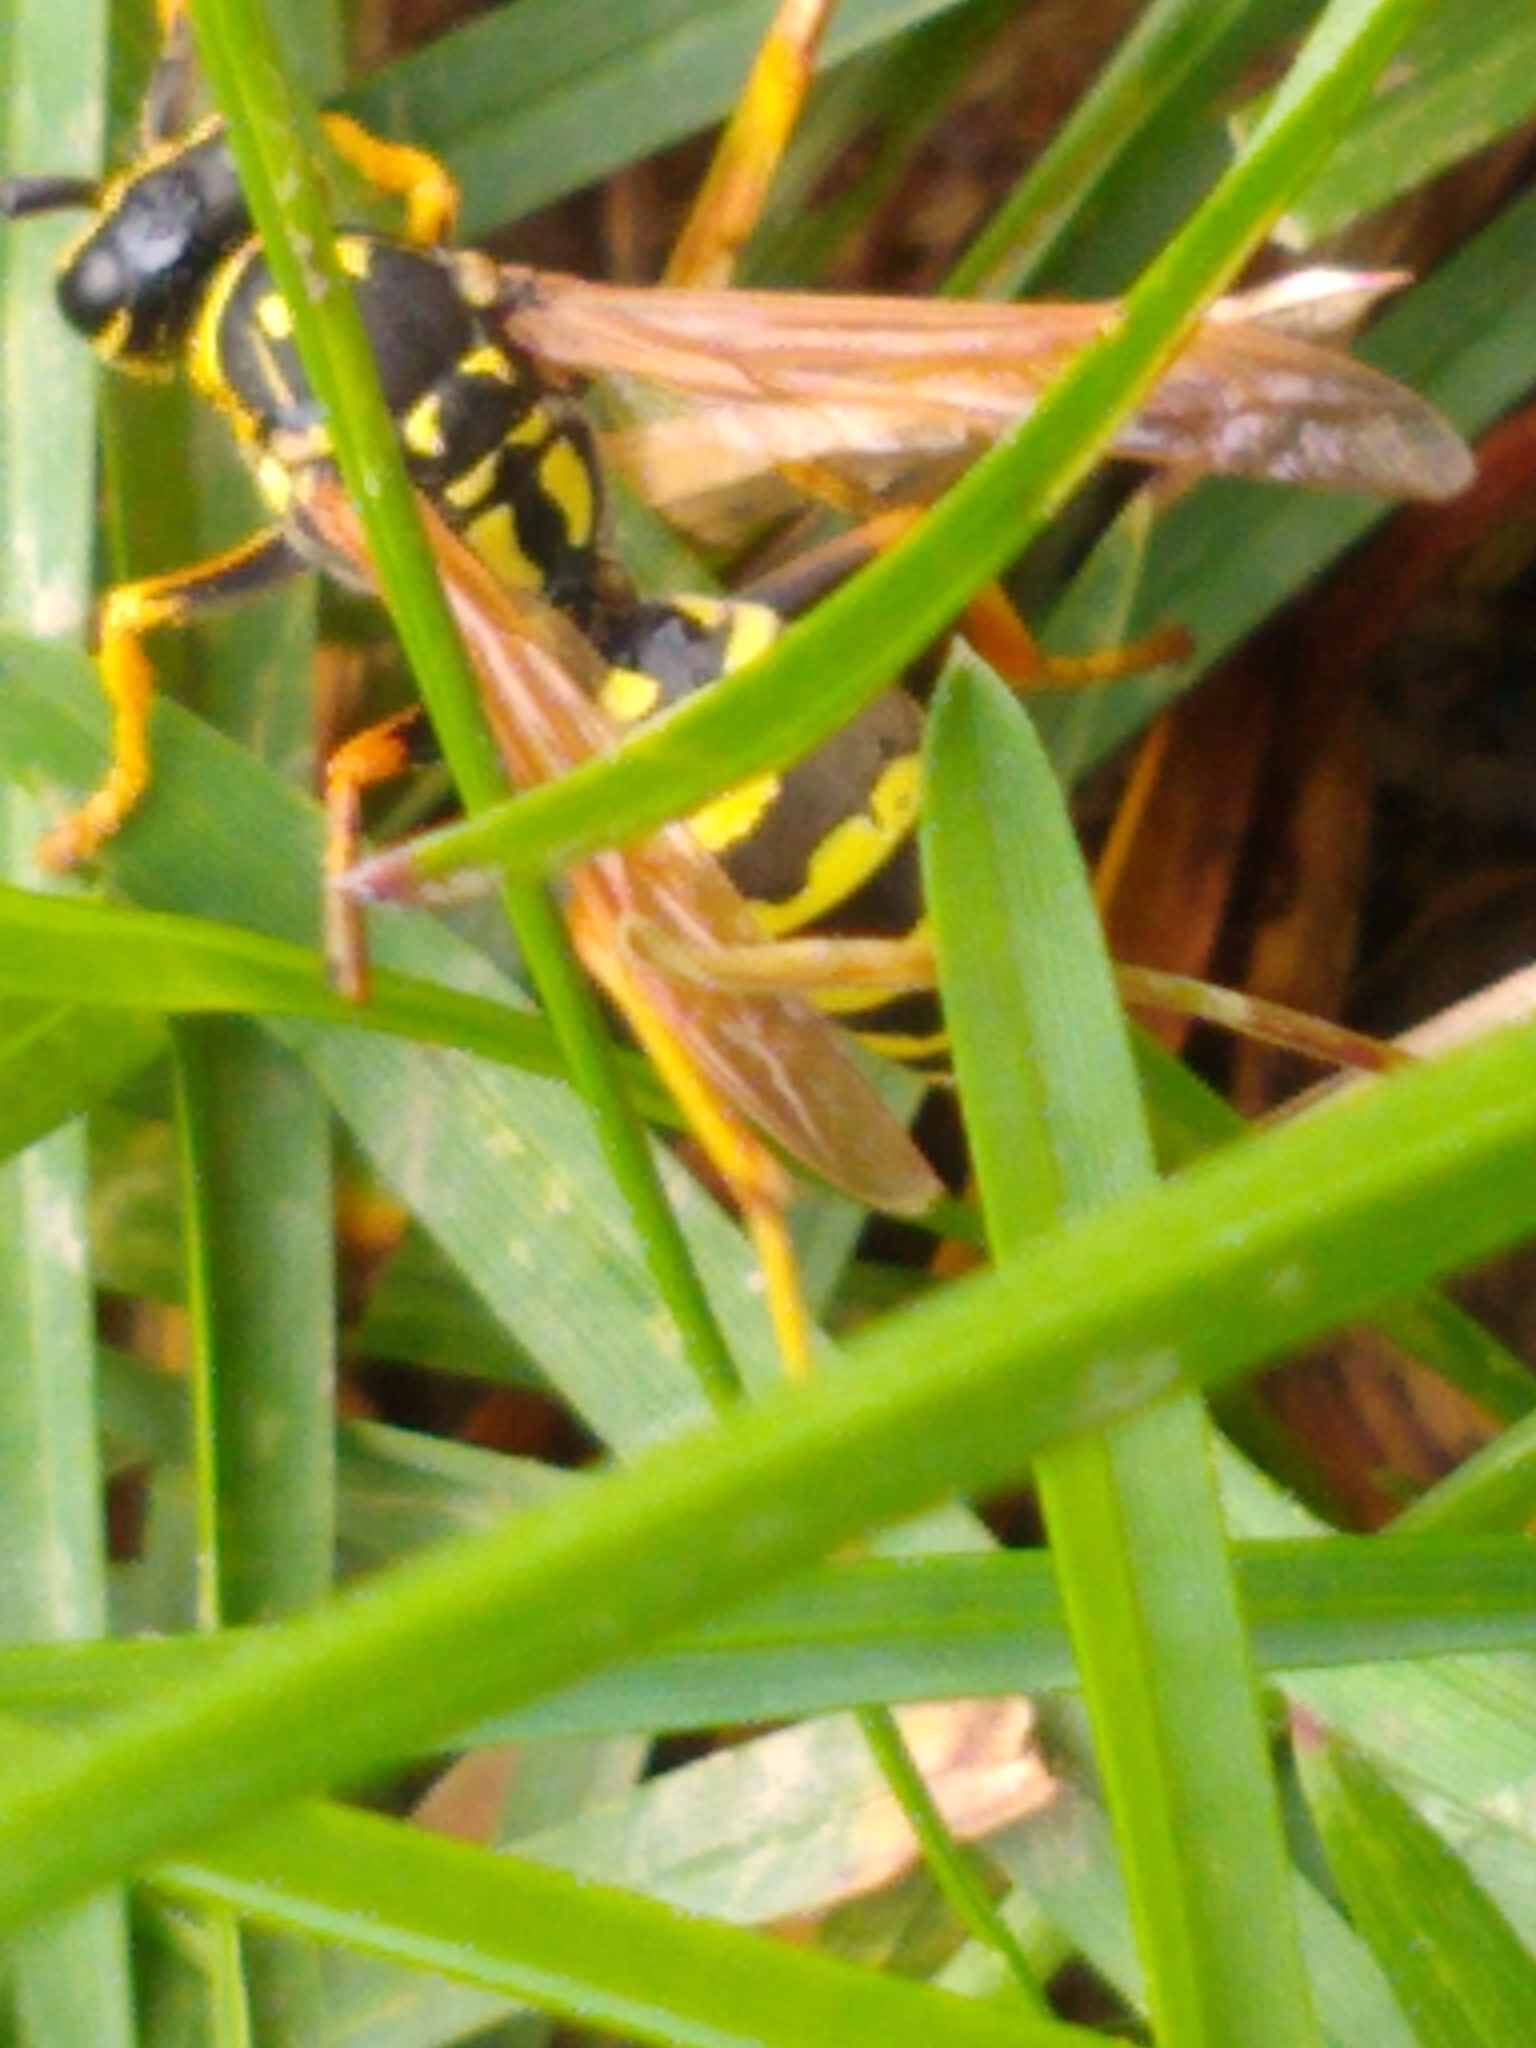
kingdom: Animalia
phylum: Arthropoda
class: Insecta
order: Hymenoptera
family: Eumenidae
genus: Polistes
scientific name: Polistes dominula
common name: Paper wasp
